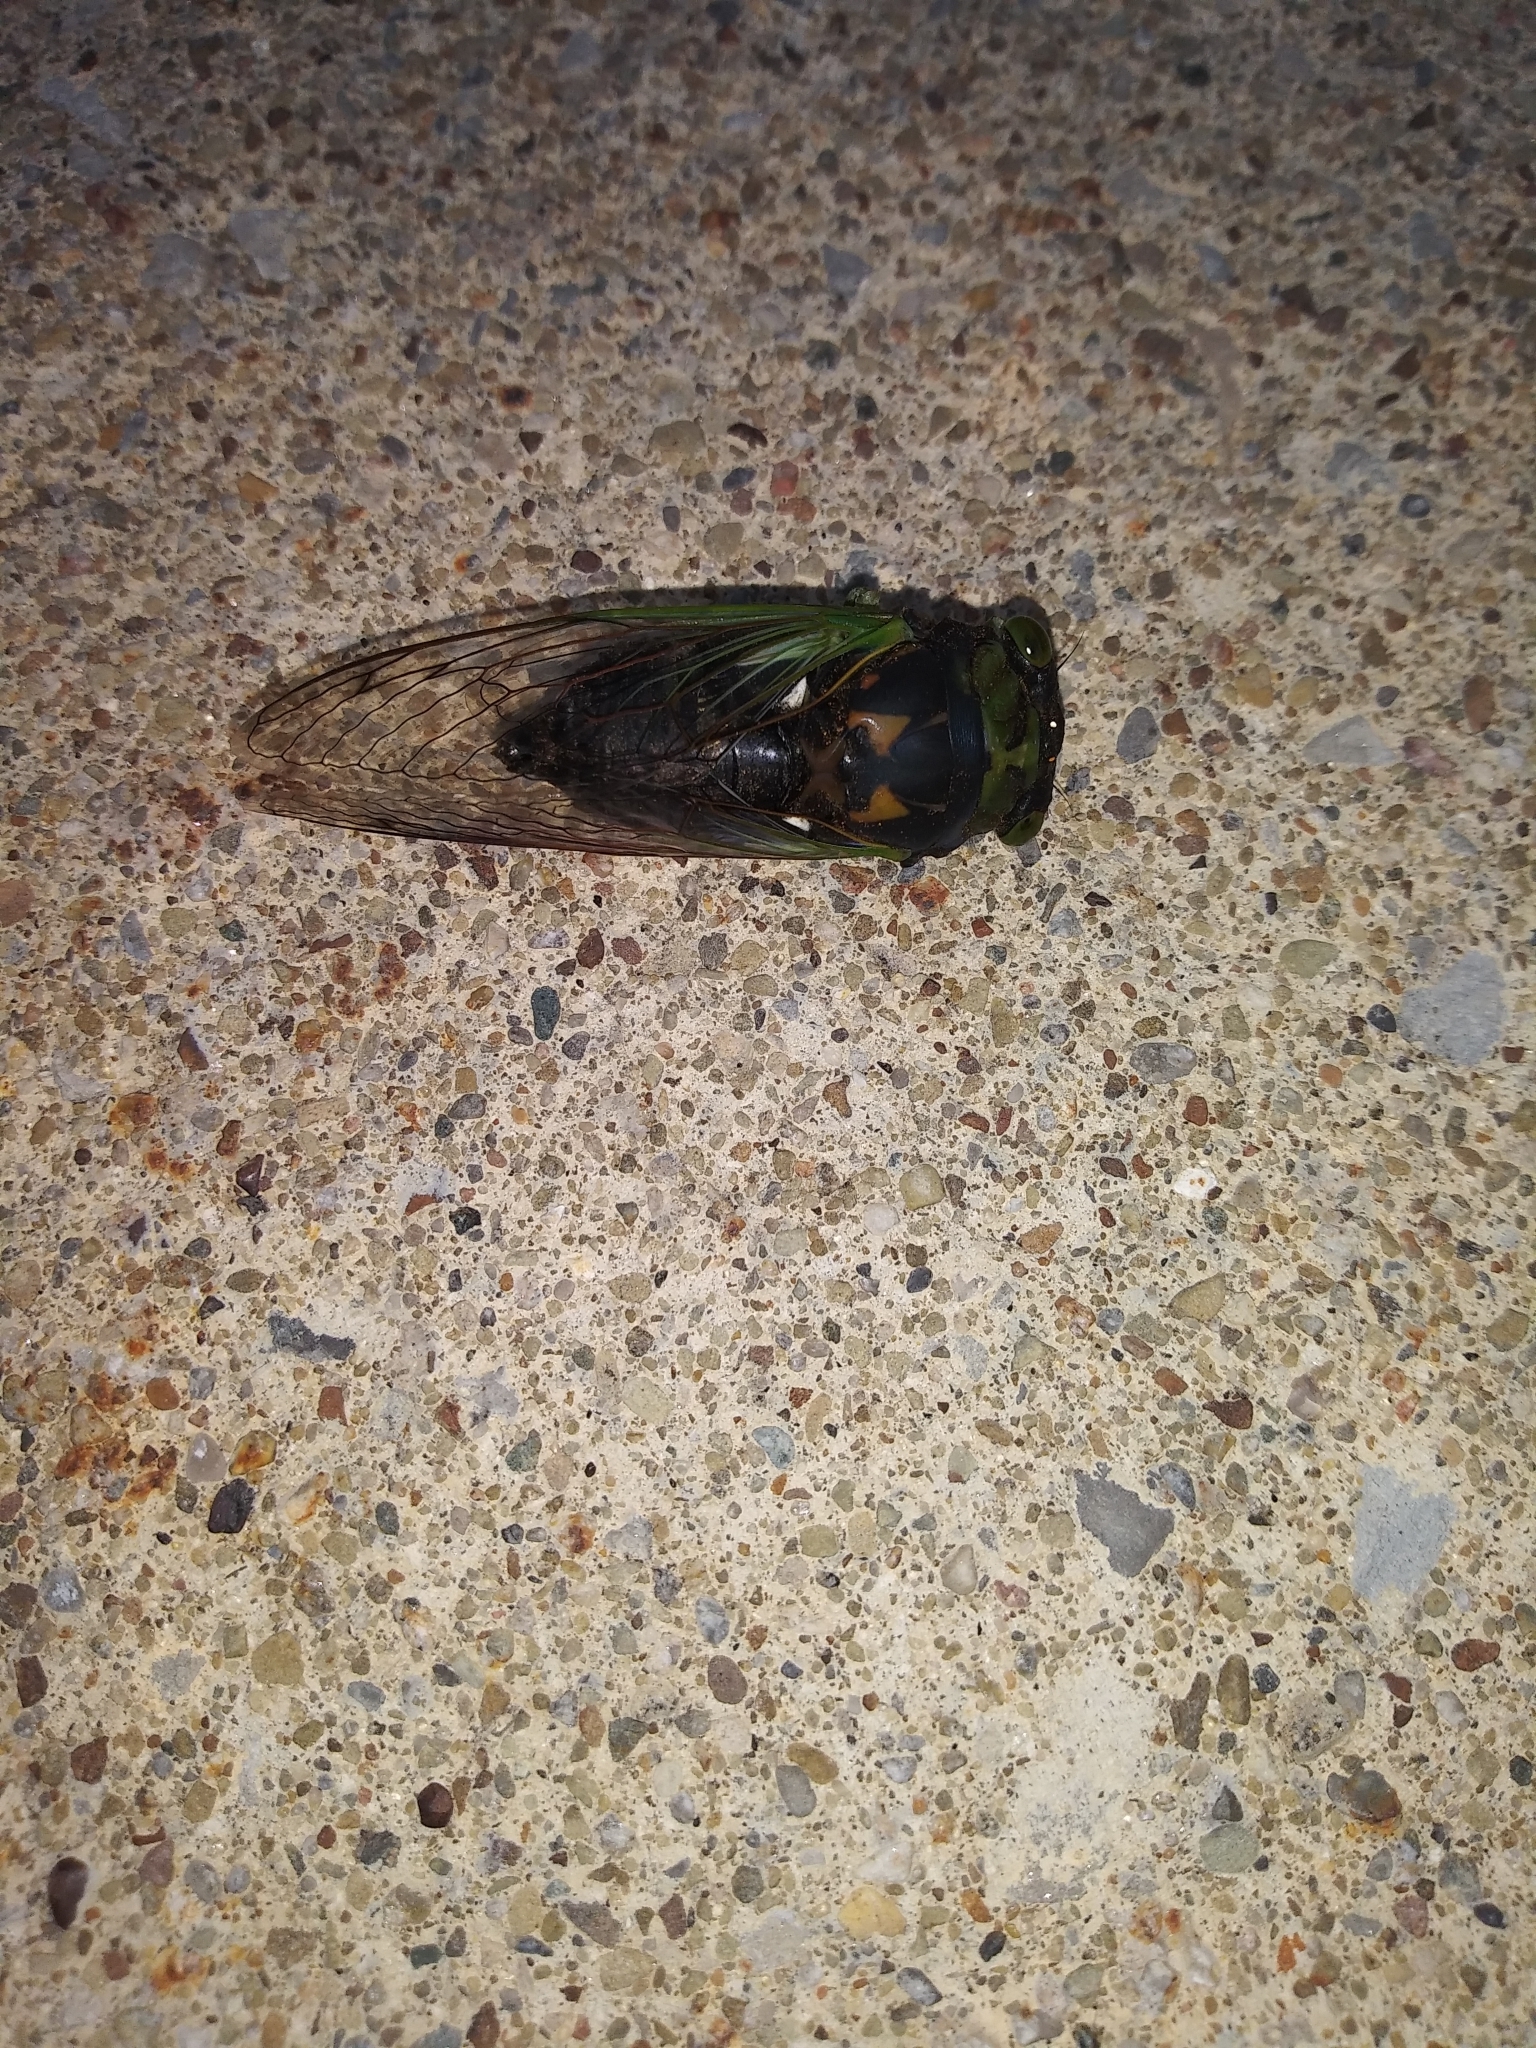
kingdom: Animalia
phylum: Arthropoda
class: Insecta
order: Hemiptera
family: Cicadidae
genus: Neotibicen
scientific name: Neotibicen tibicen
